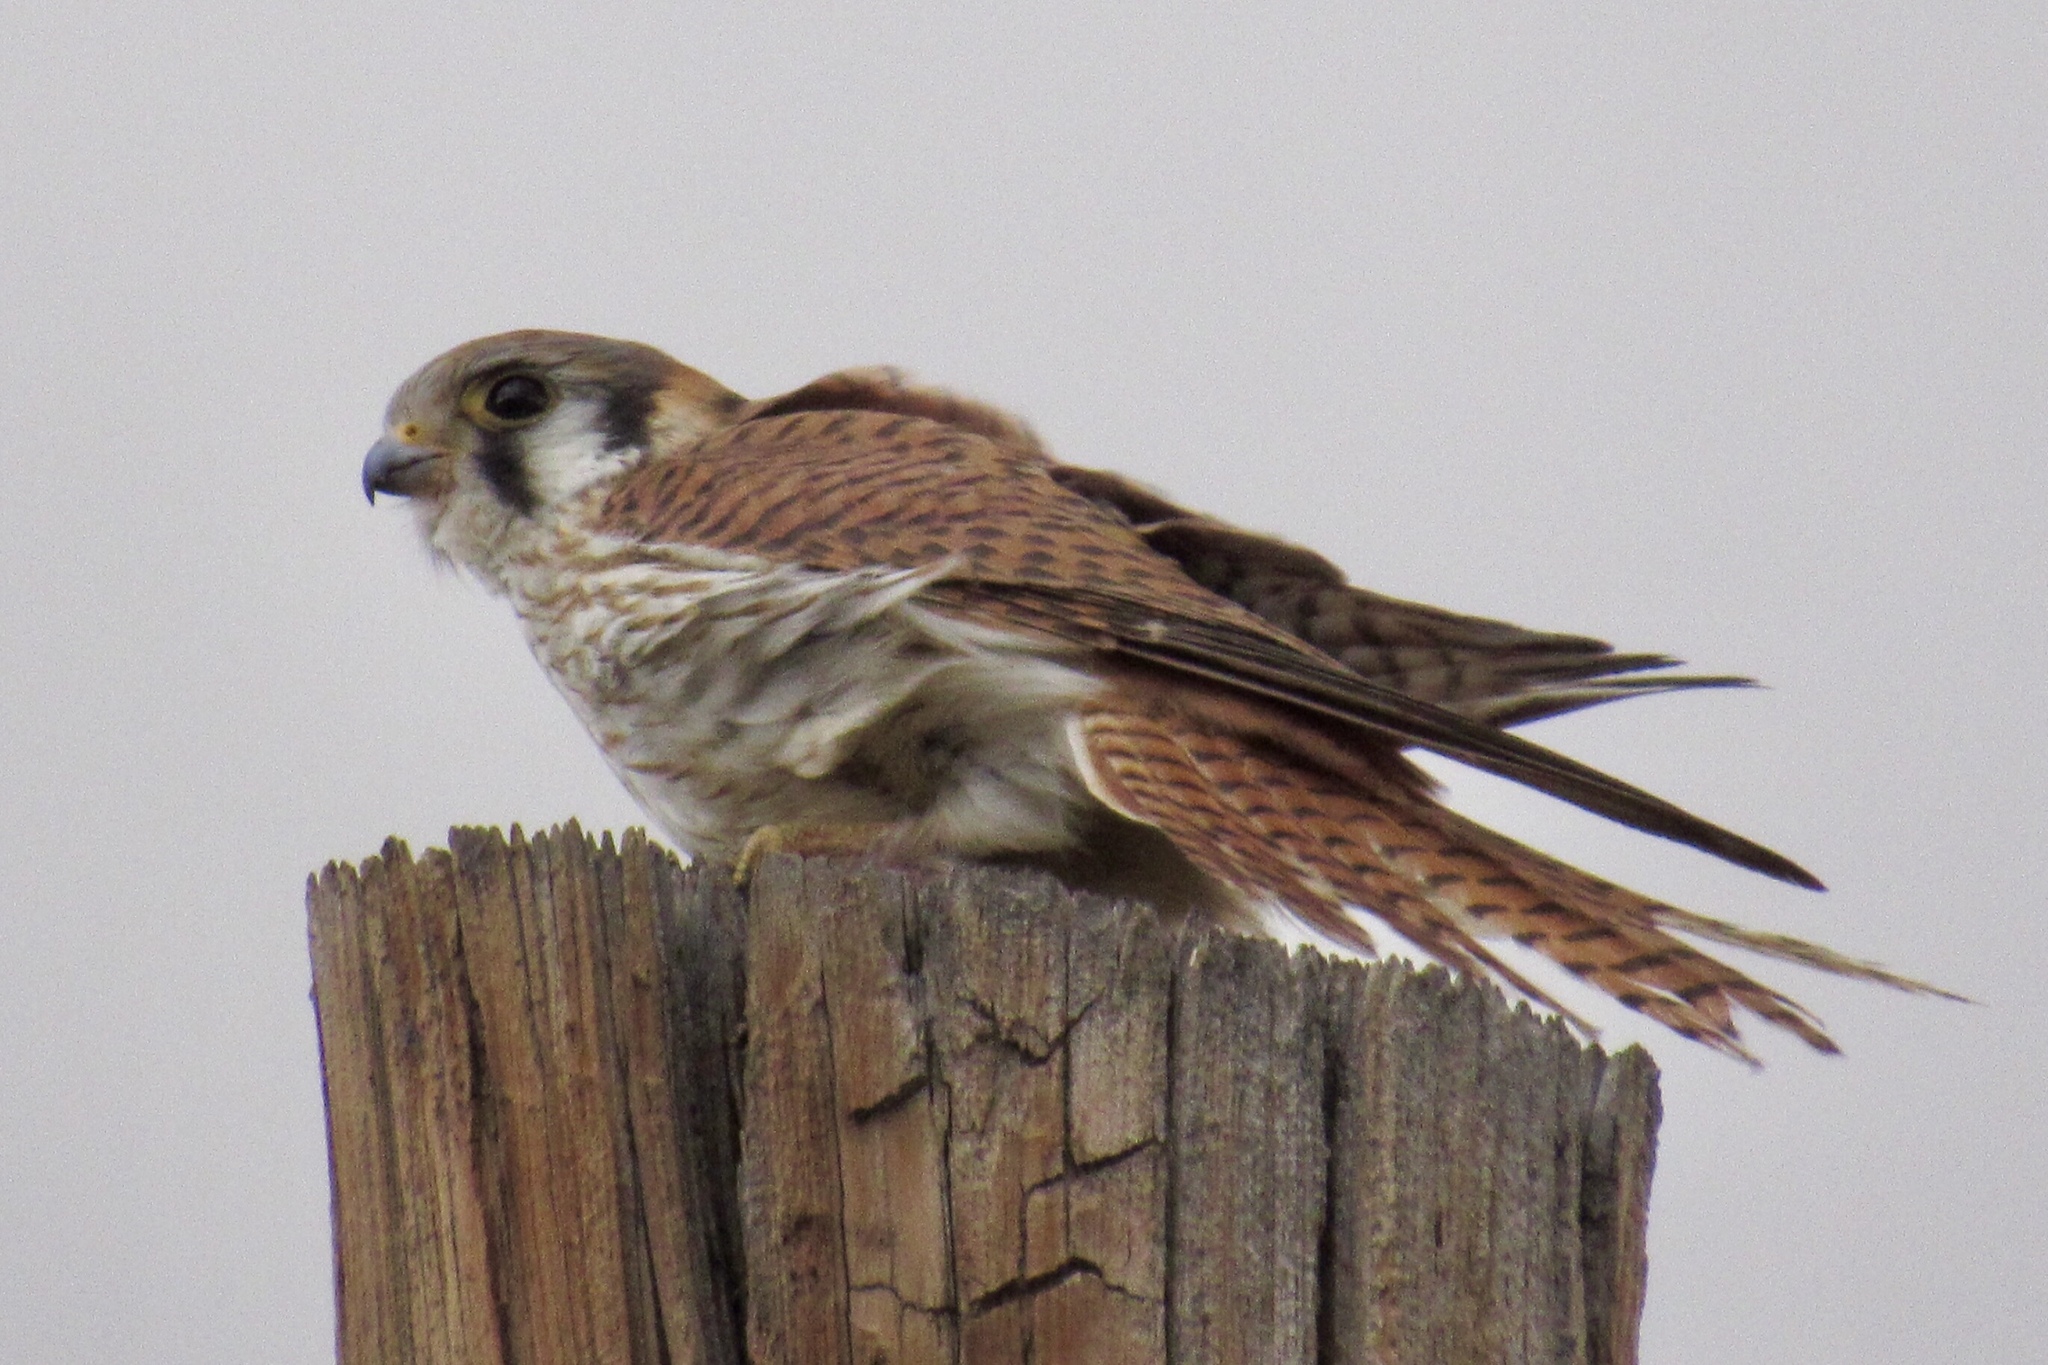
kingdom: Animalia
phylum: Chordata
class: Aves
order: Falconiformes
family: Falconidae
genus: Falco
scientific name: Falco sparverius
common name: American kestrel
